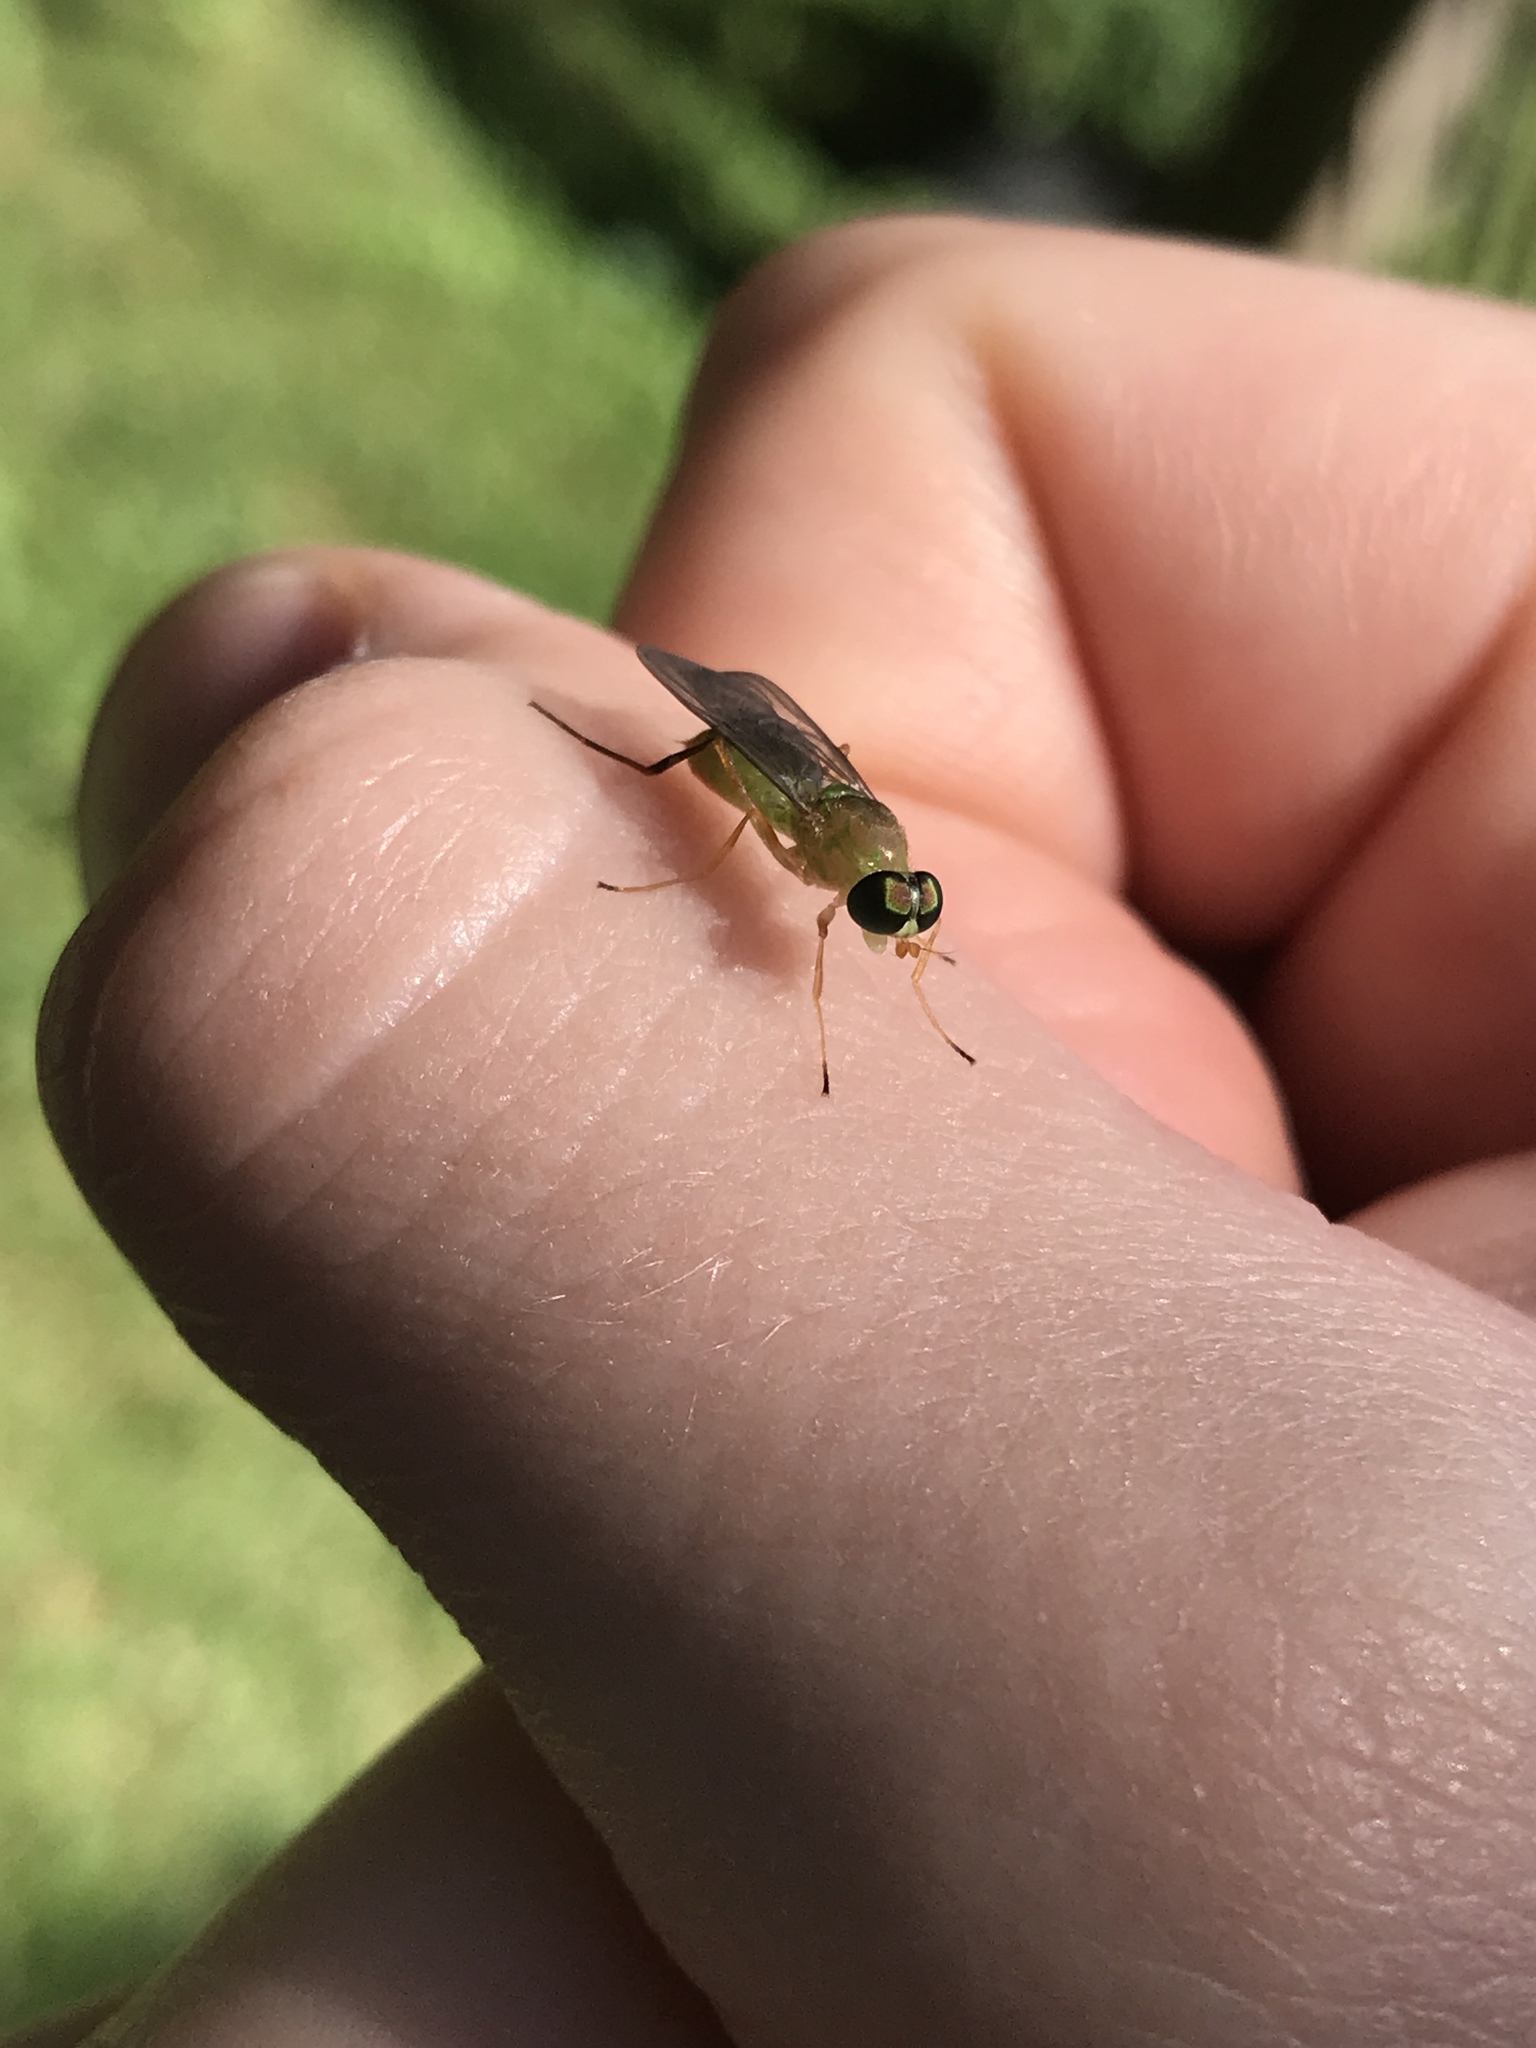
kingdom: Animalia
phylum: Arthropoda
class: Insecta
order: Diptera
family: Stratiomyidae
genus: Ptecticus
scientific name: Ptecticus trivittatus
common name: Compost fly
